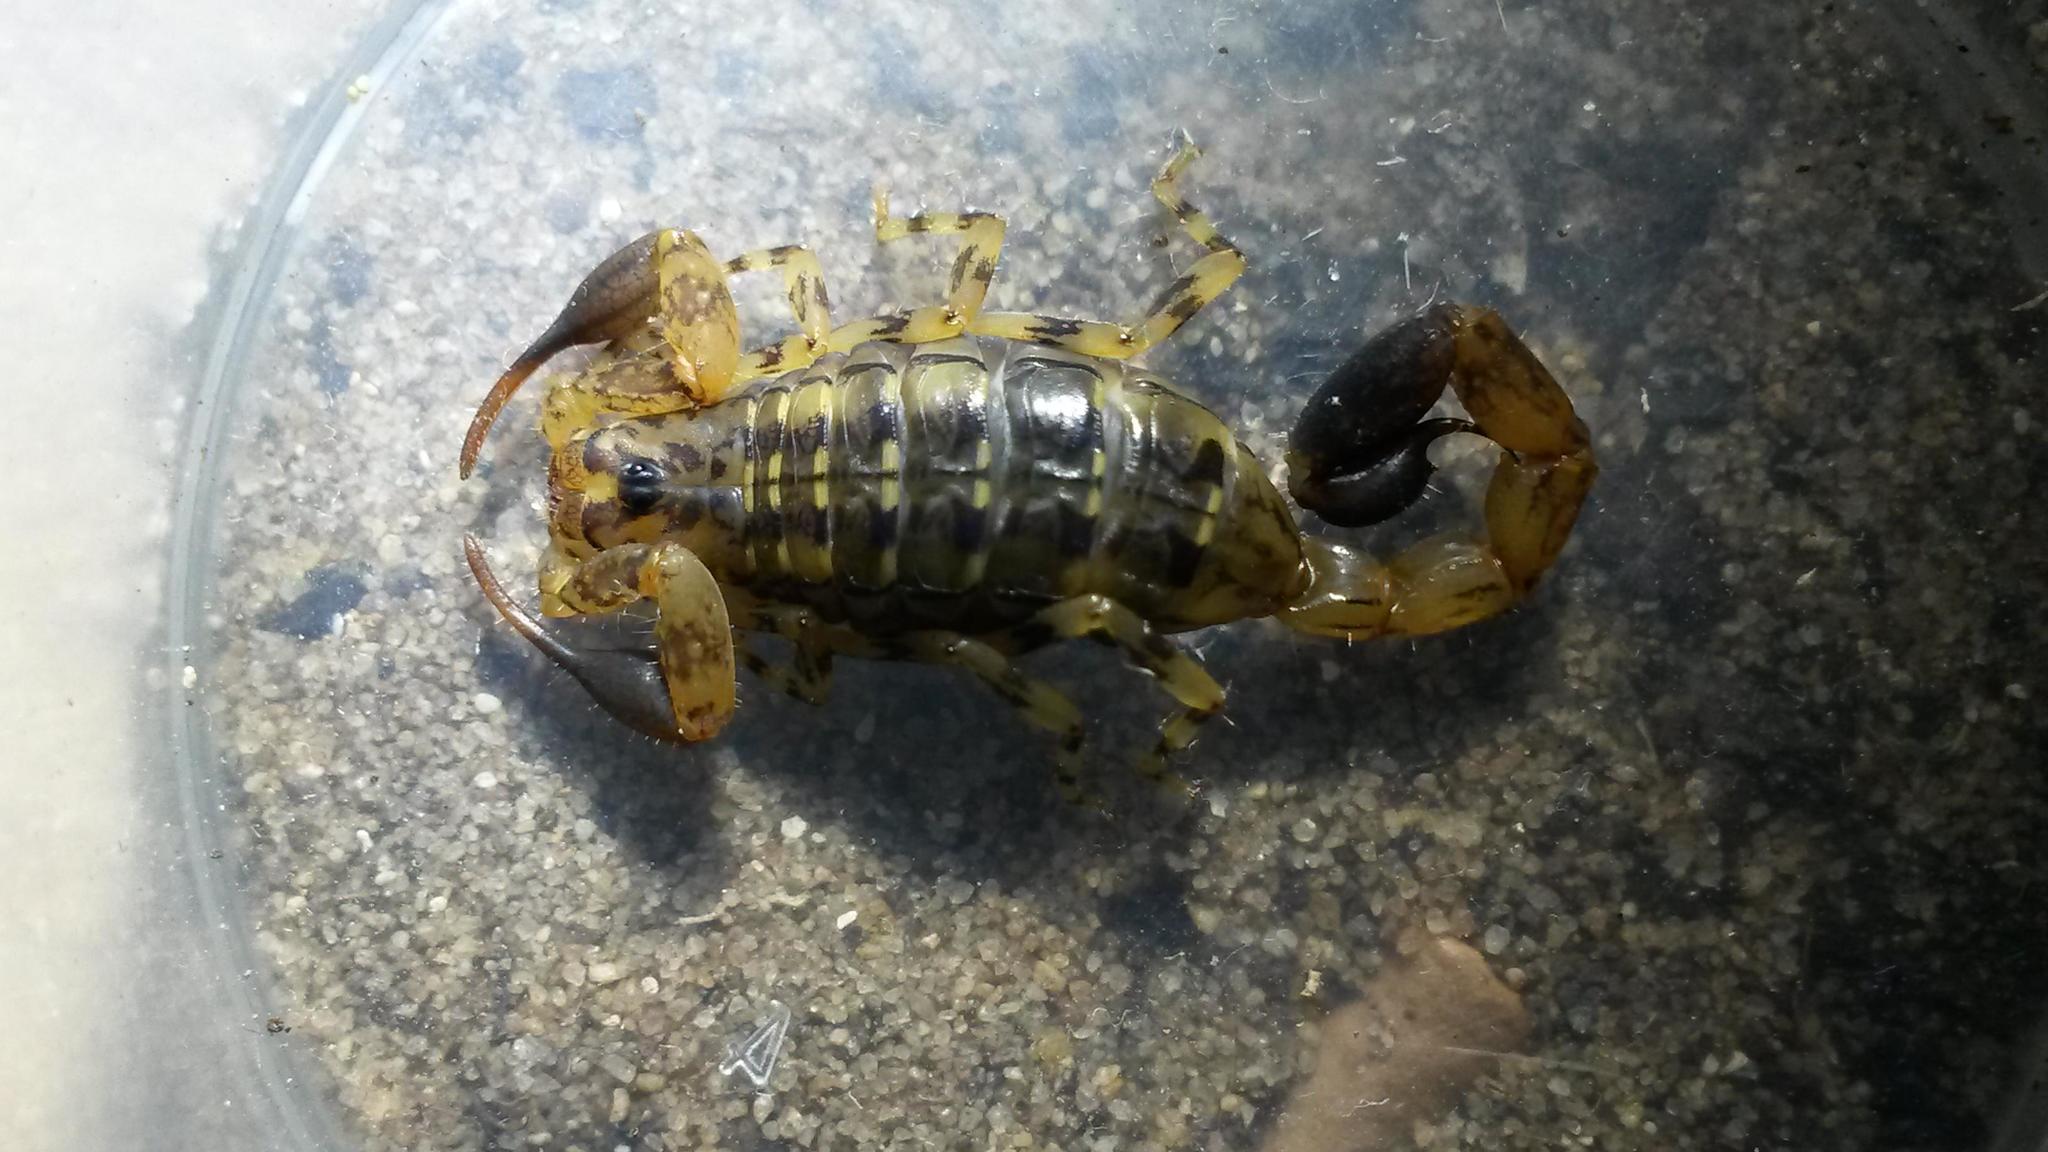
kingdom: Animalia
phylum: Arthropoda
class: Arachnida
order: Scorpiones
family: Buthidae
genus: Uroplectes
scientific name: Uroplectes formosus
